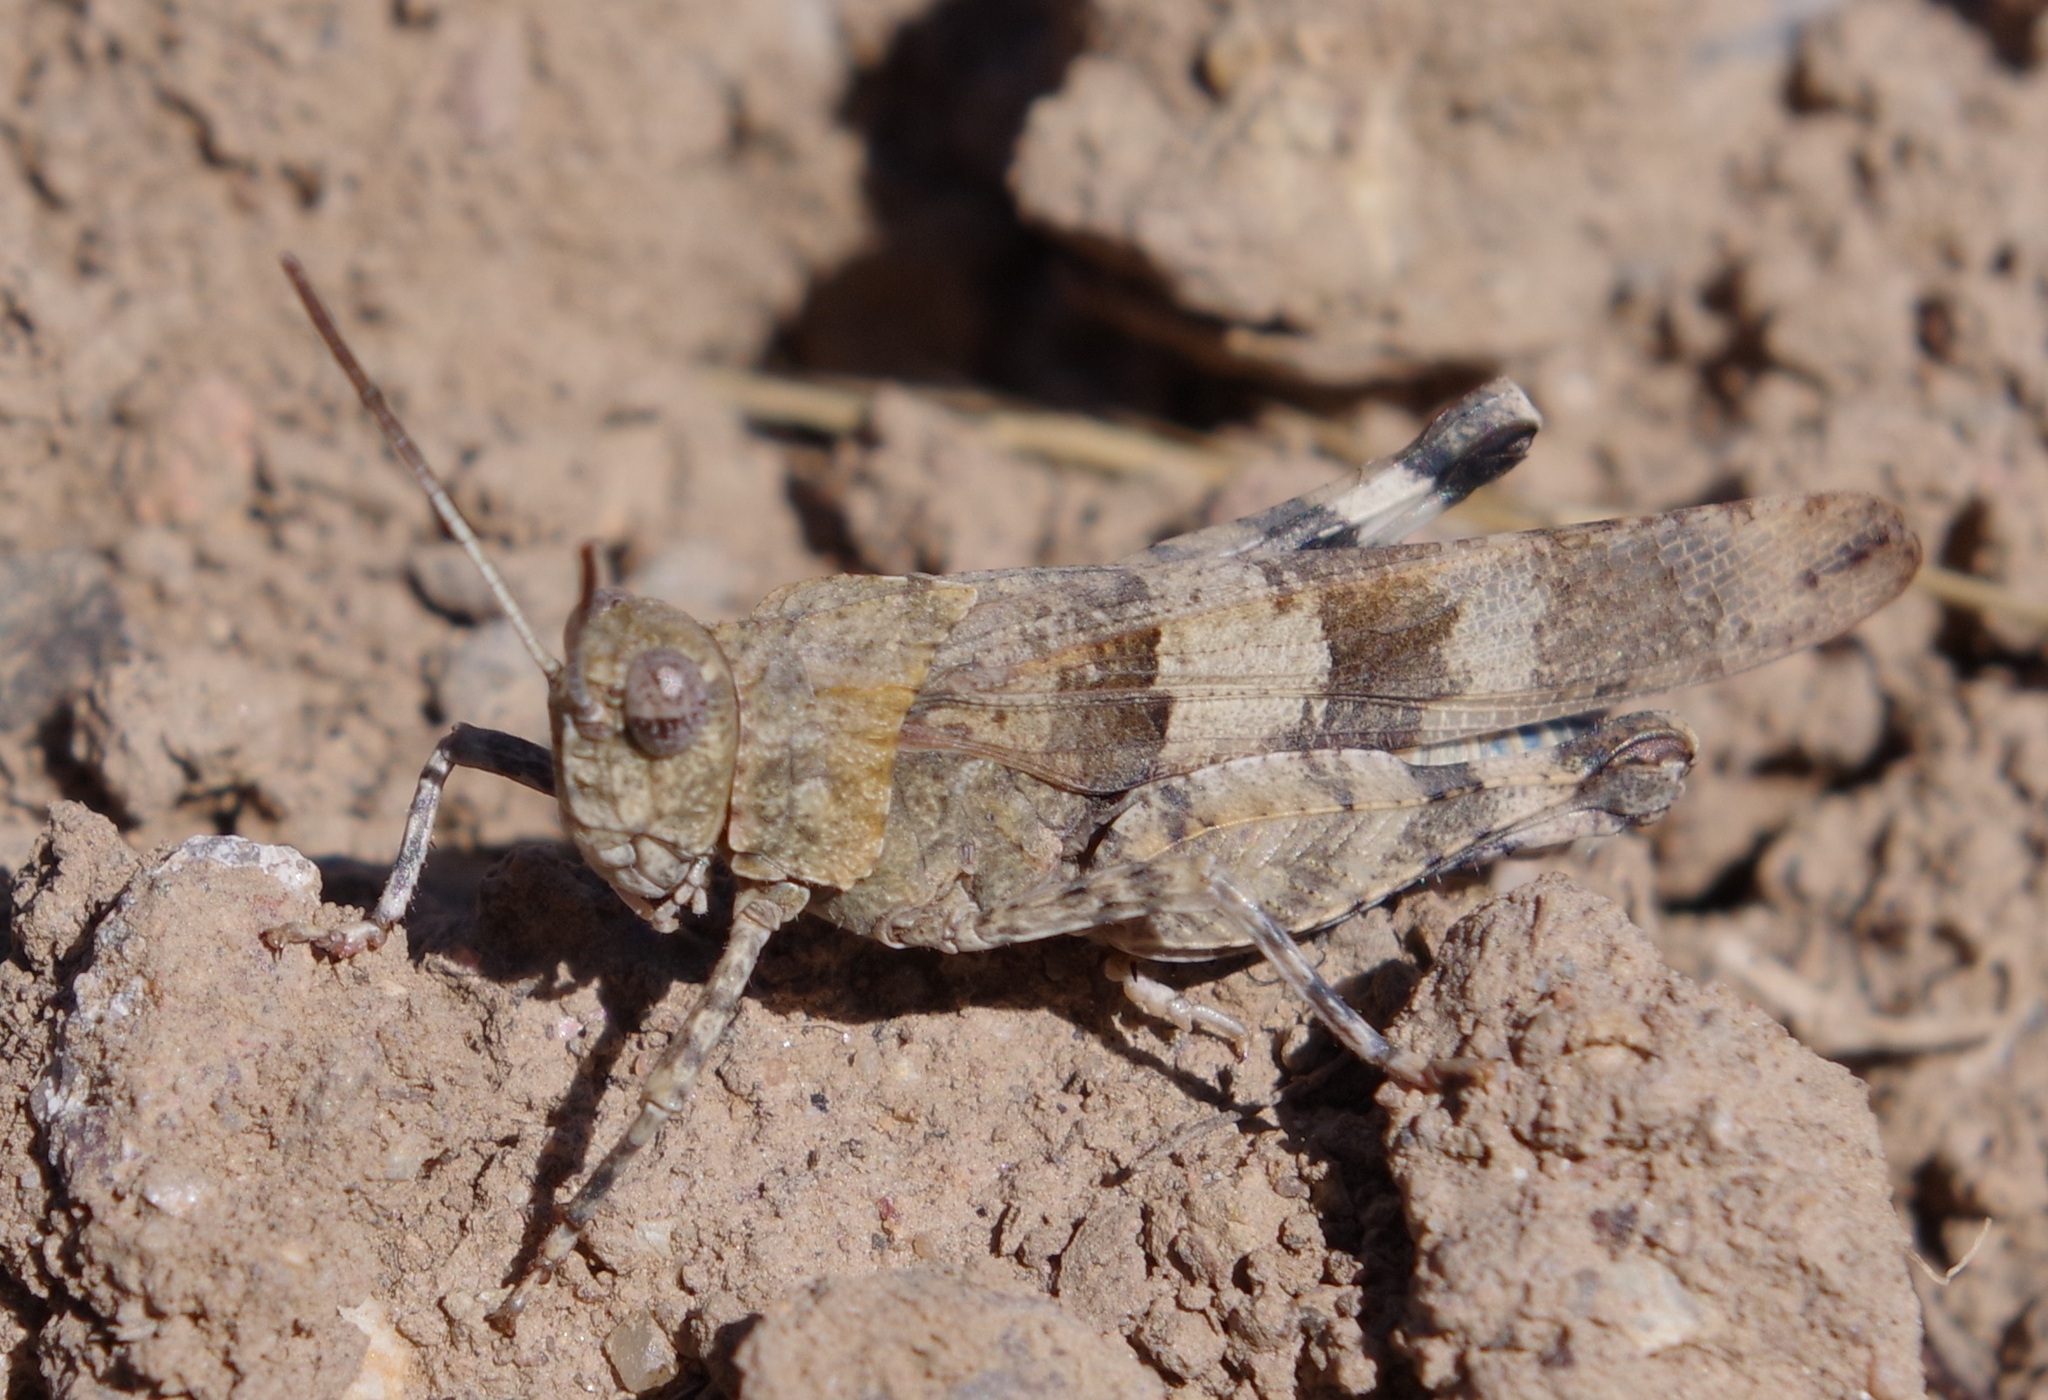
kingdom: Animalia
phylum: Arthropoda
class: Insecta
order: Orthoptera
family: Acrididae
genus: Oedipoda
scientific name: Oedipoda caerulescens
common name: Blue-winged grasshopper
